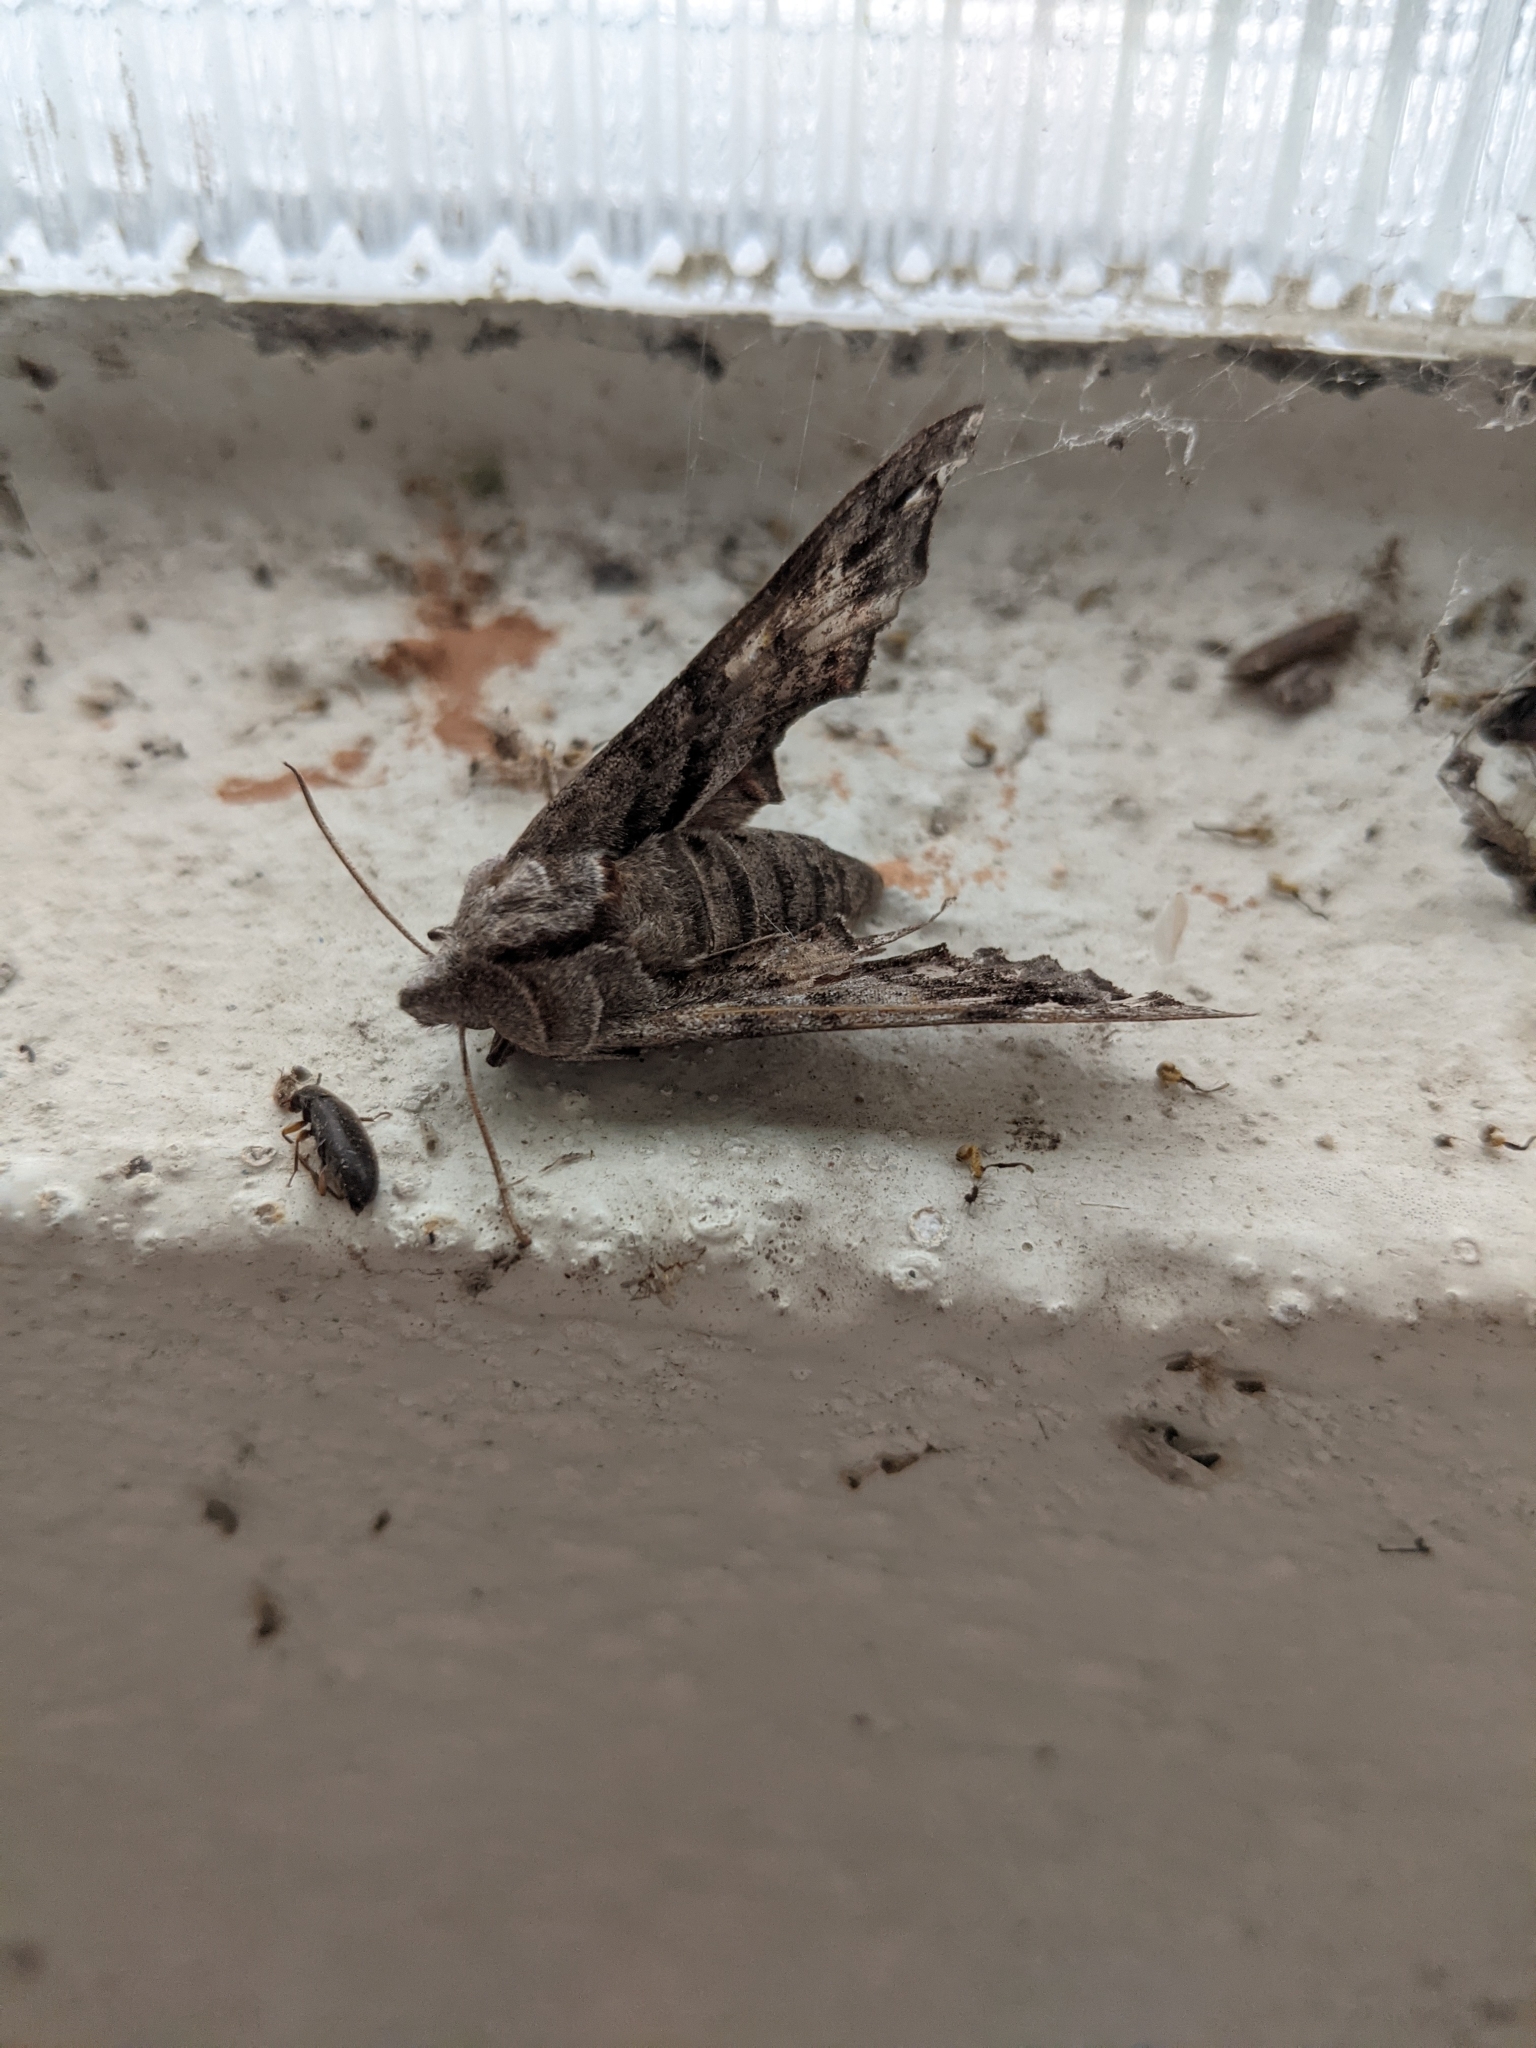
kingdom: Animalia
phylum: Arthropoda
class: Insecta
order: Lepidoptera
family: Sphingidae
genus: Deidamia
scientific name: Deidamia inscriptum
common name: Lettered sphinx
